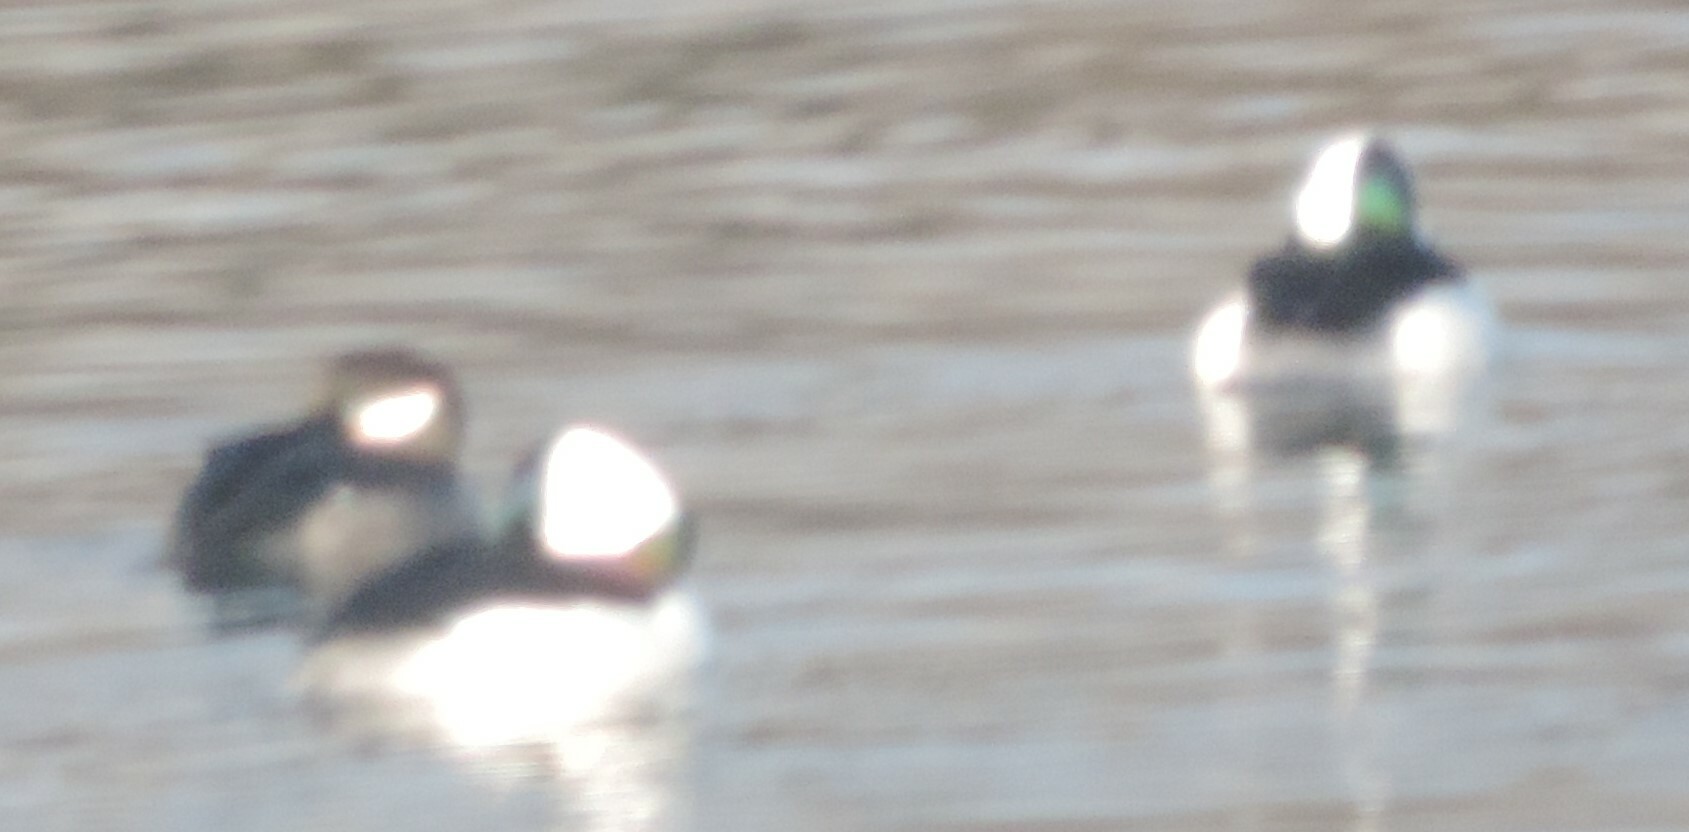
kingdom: Animalia
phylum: Chordata
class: Aves
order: Anseriformes
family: Anatidae
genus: Bucephala
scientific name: Bucephala albeola
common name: Bufflehead
